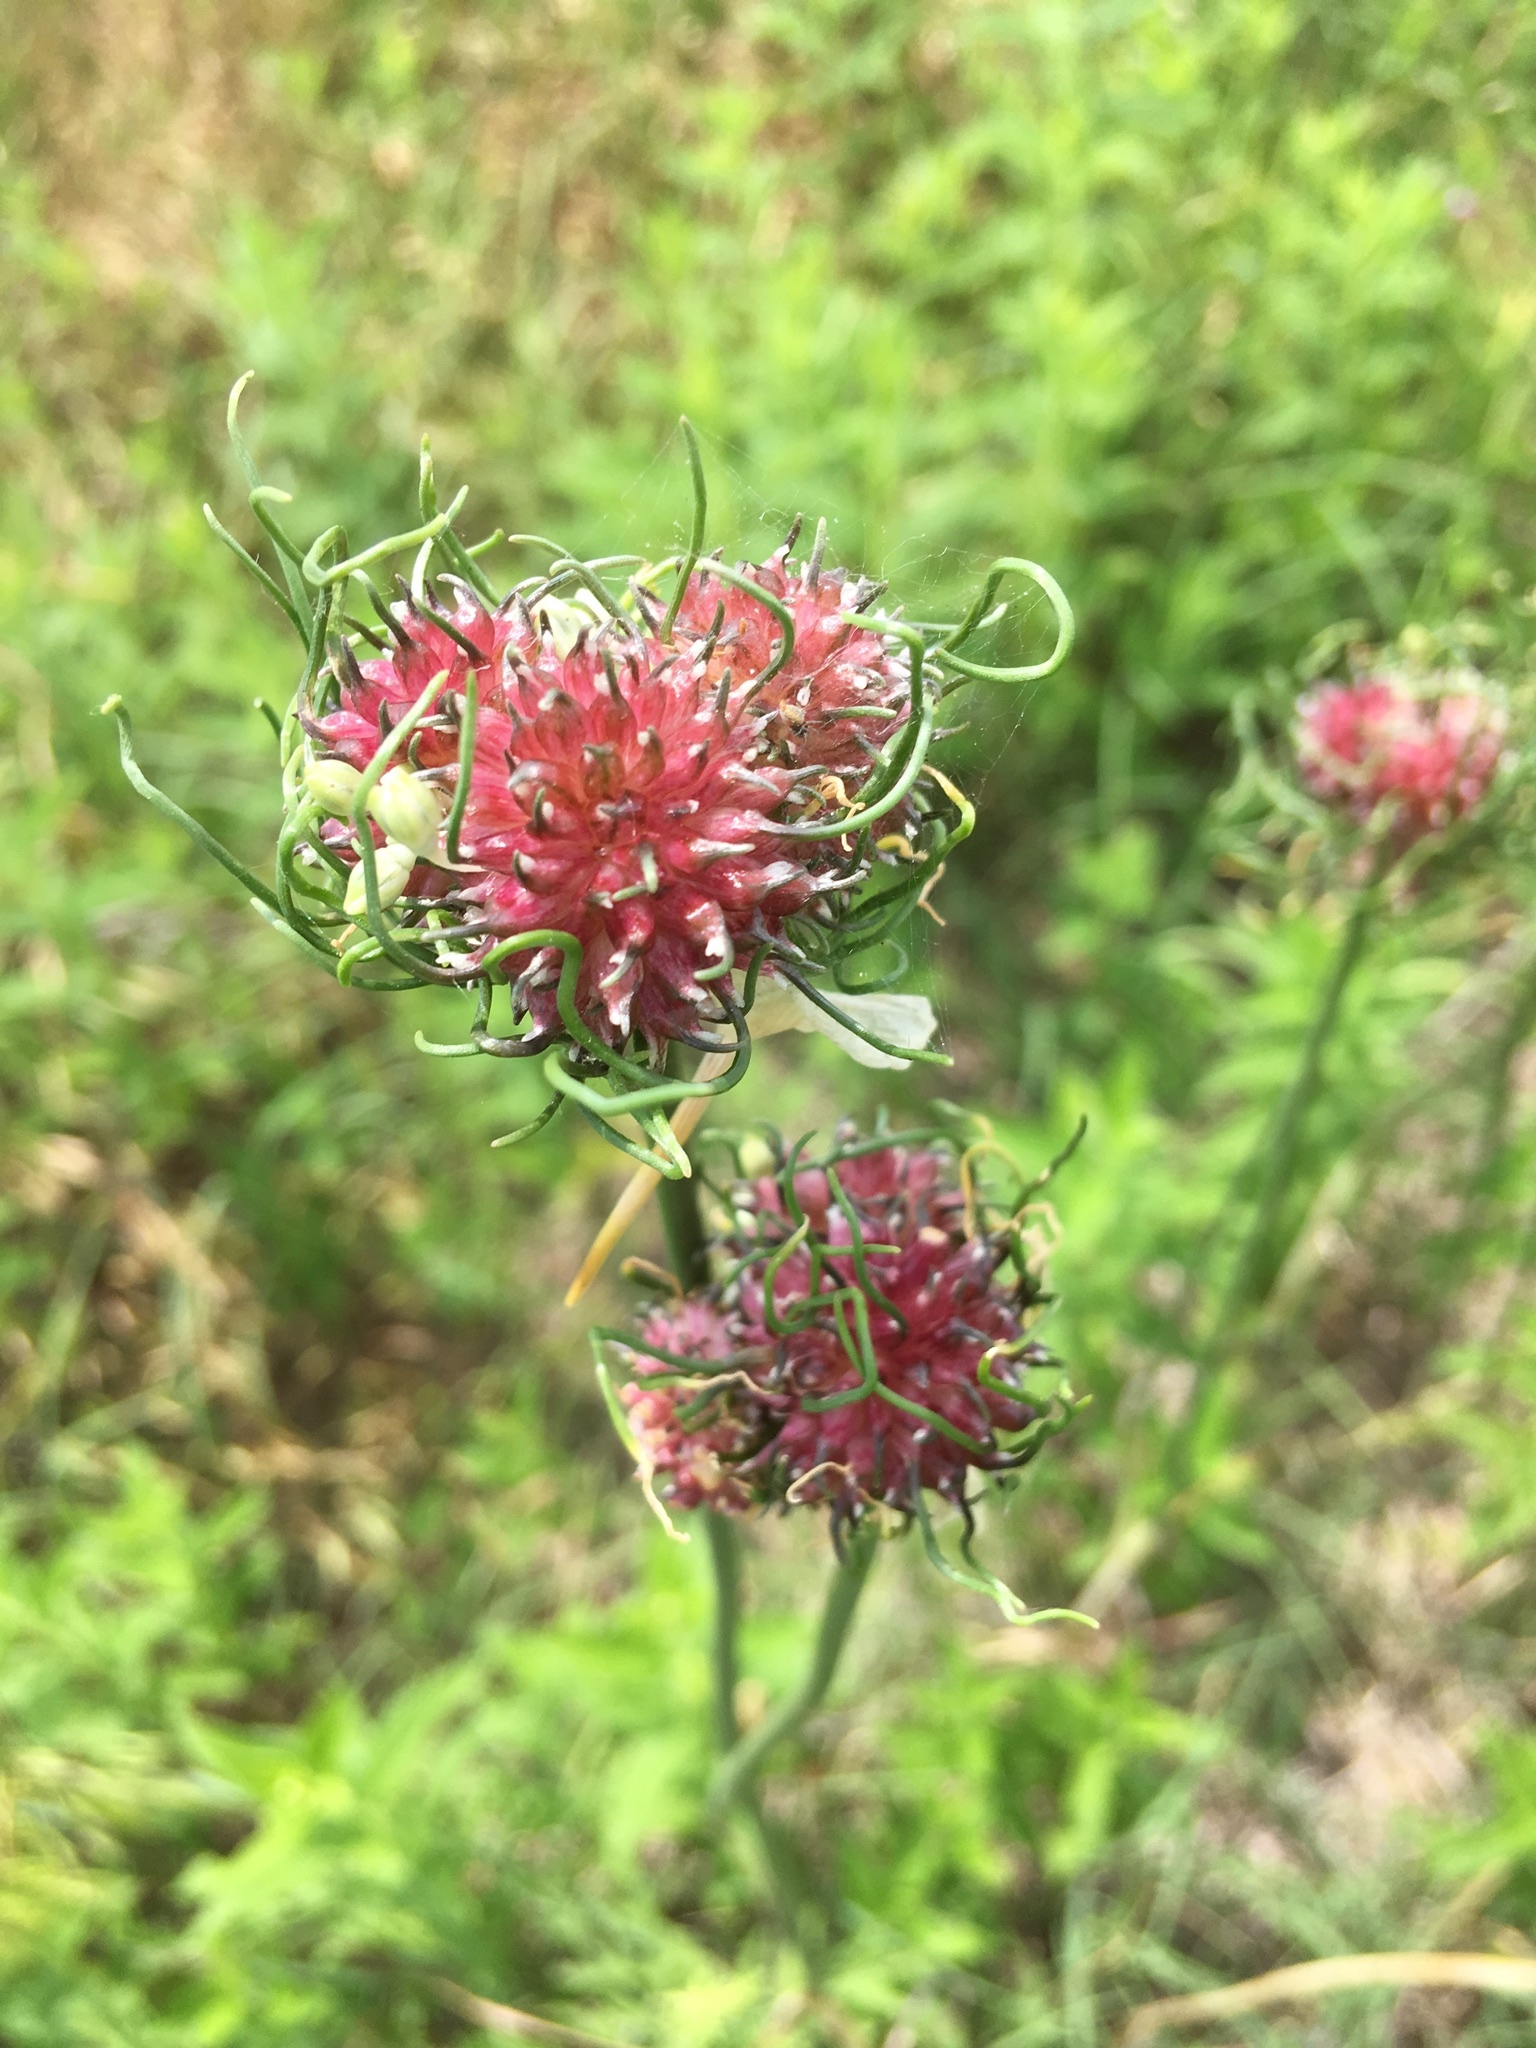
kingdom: Plantae
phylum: Tracheophyta
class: Liliopsida
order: Asparagales
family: Amaryllidaceae
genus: Allium
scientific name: Allium vineale
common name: Crow garlic
